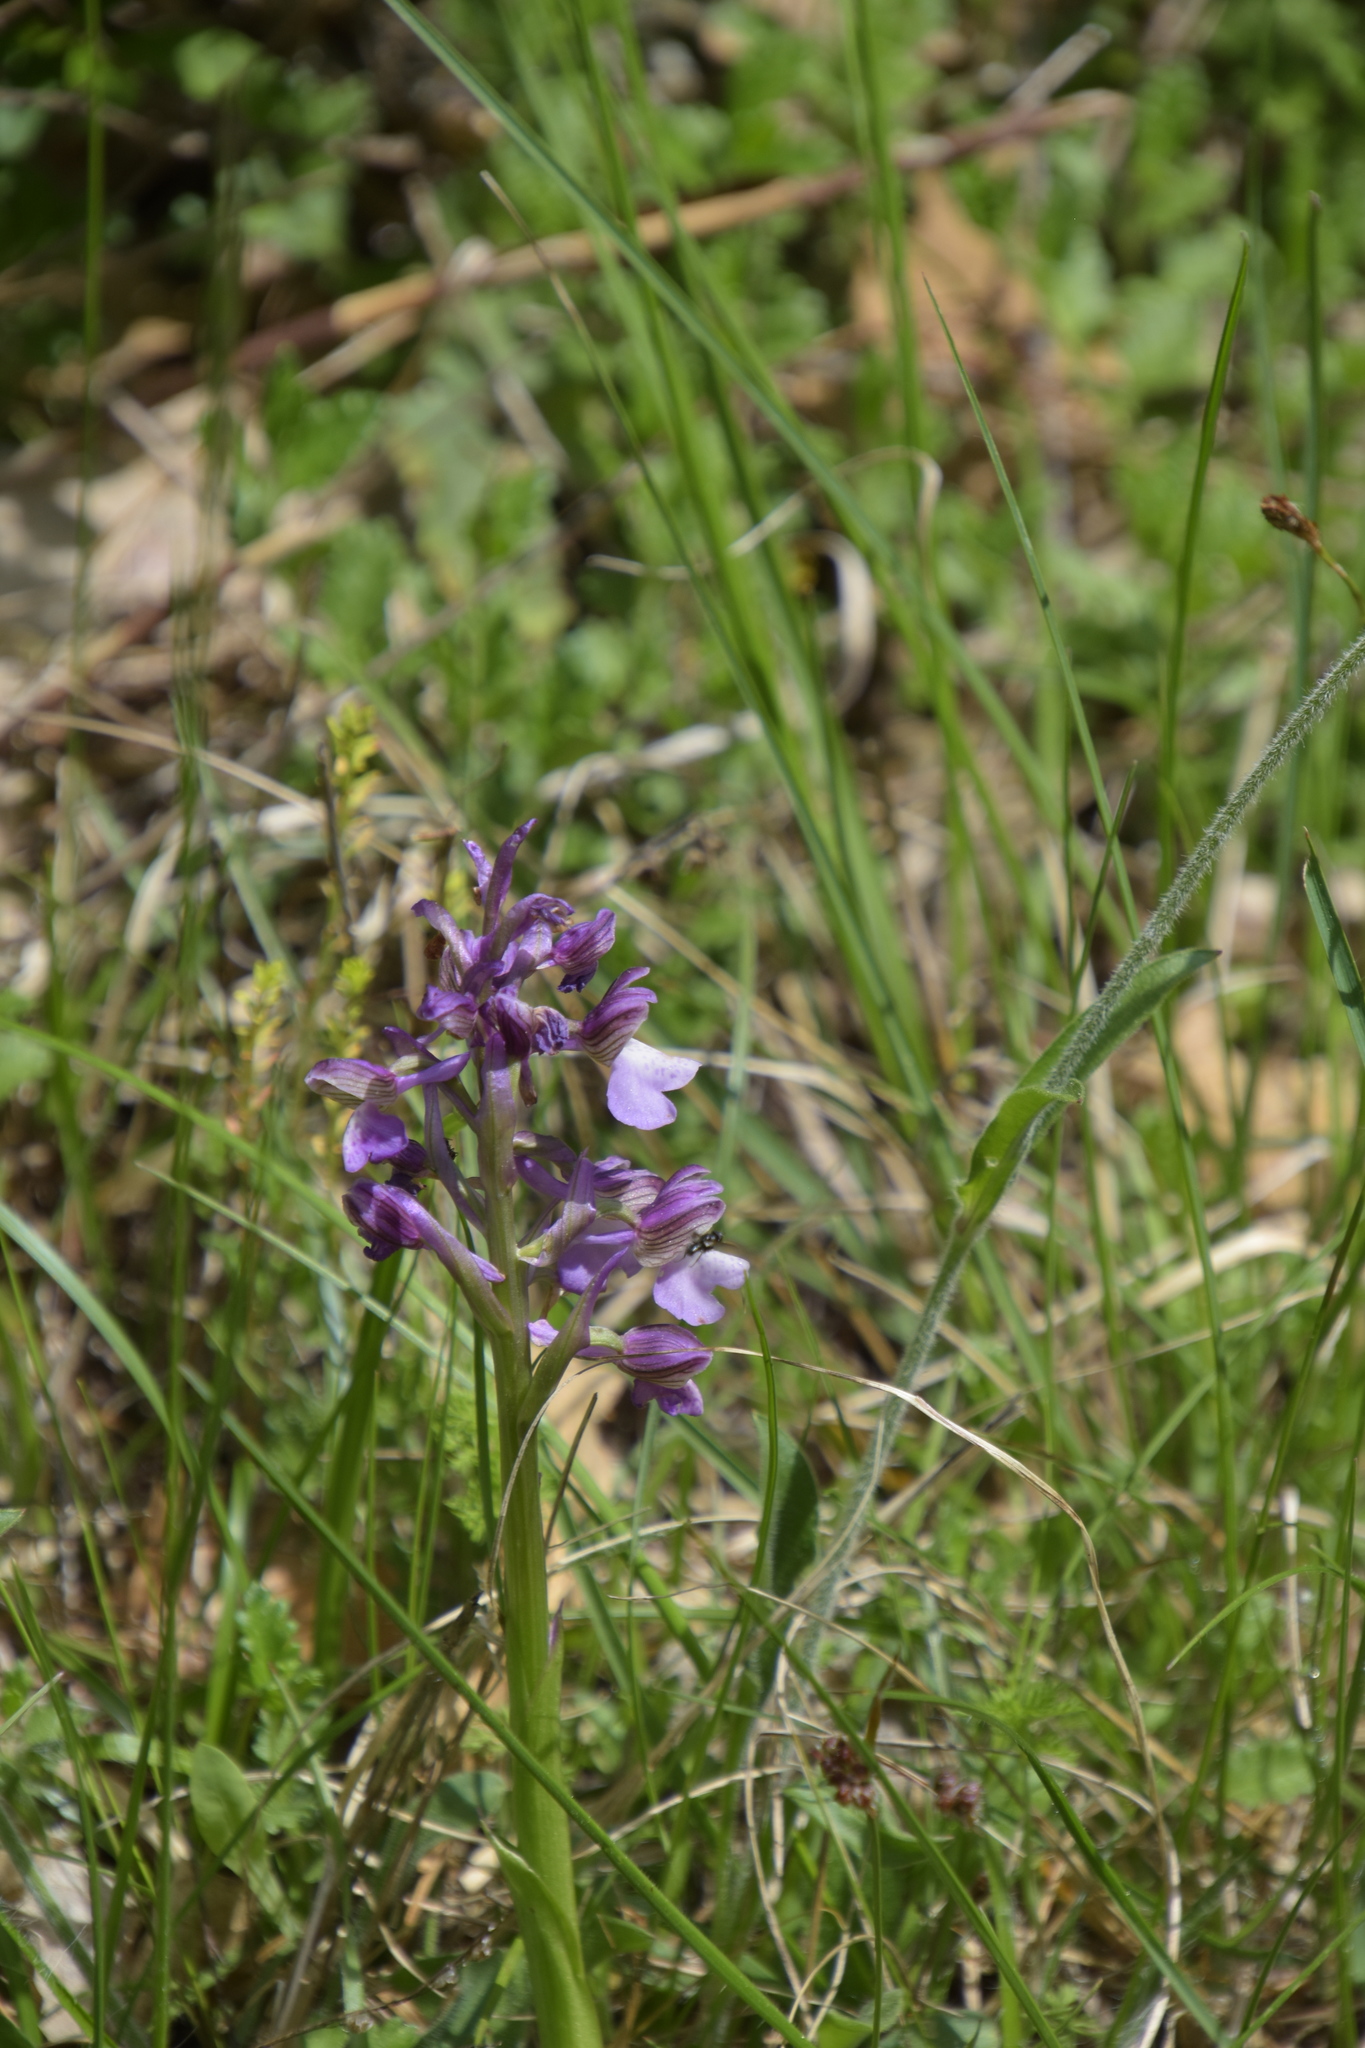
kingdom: Plantae
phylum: Tracheophyta
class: Liliopsida
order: Asparagales
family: Orchidaceae
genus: Anacamptis
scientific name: Anacamptis morio
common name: Green-winged orchid
